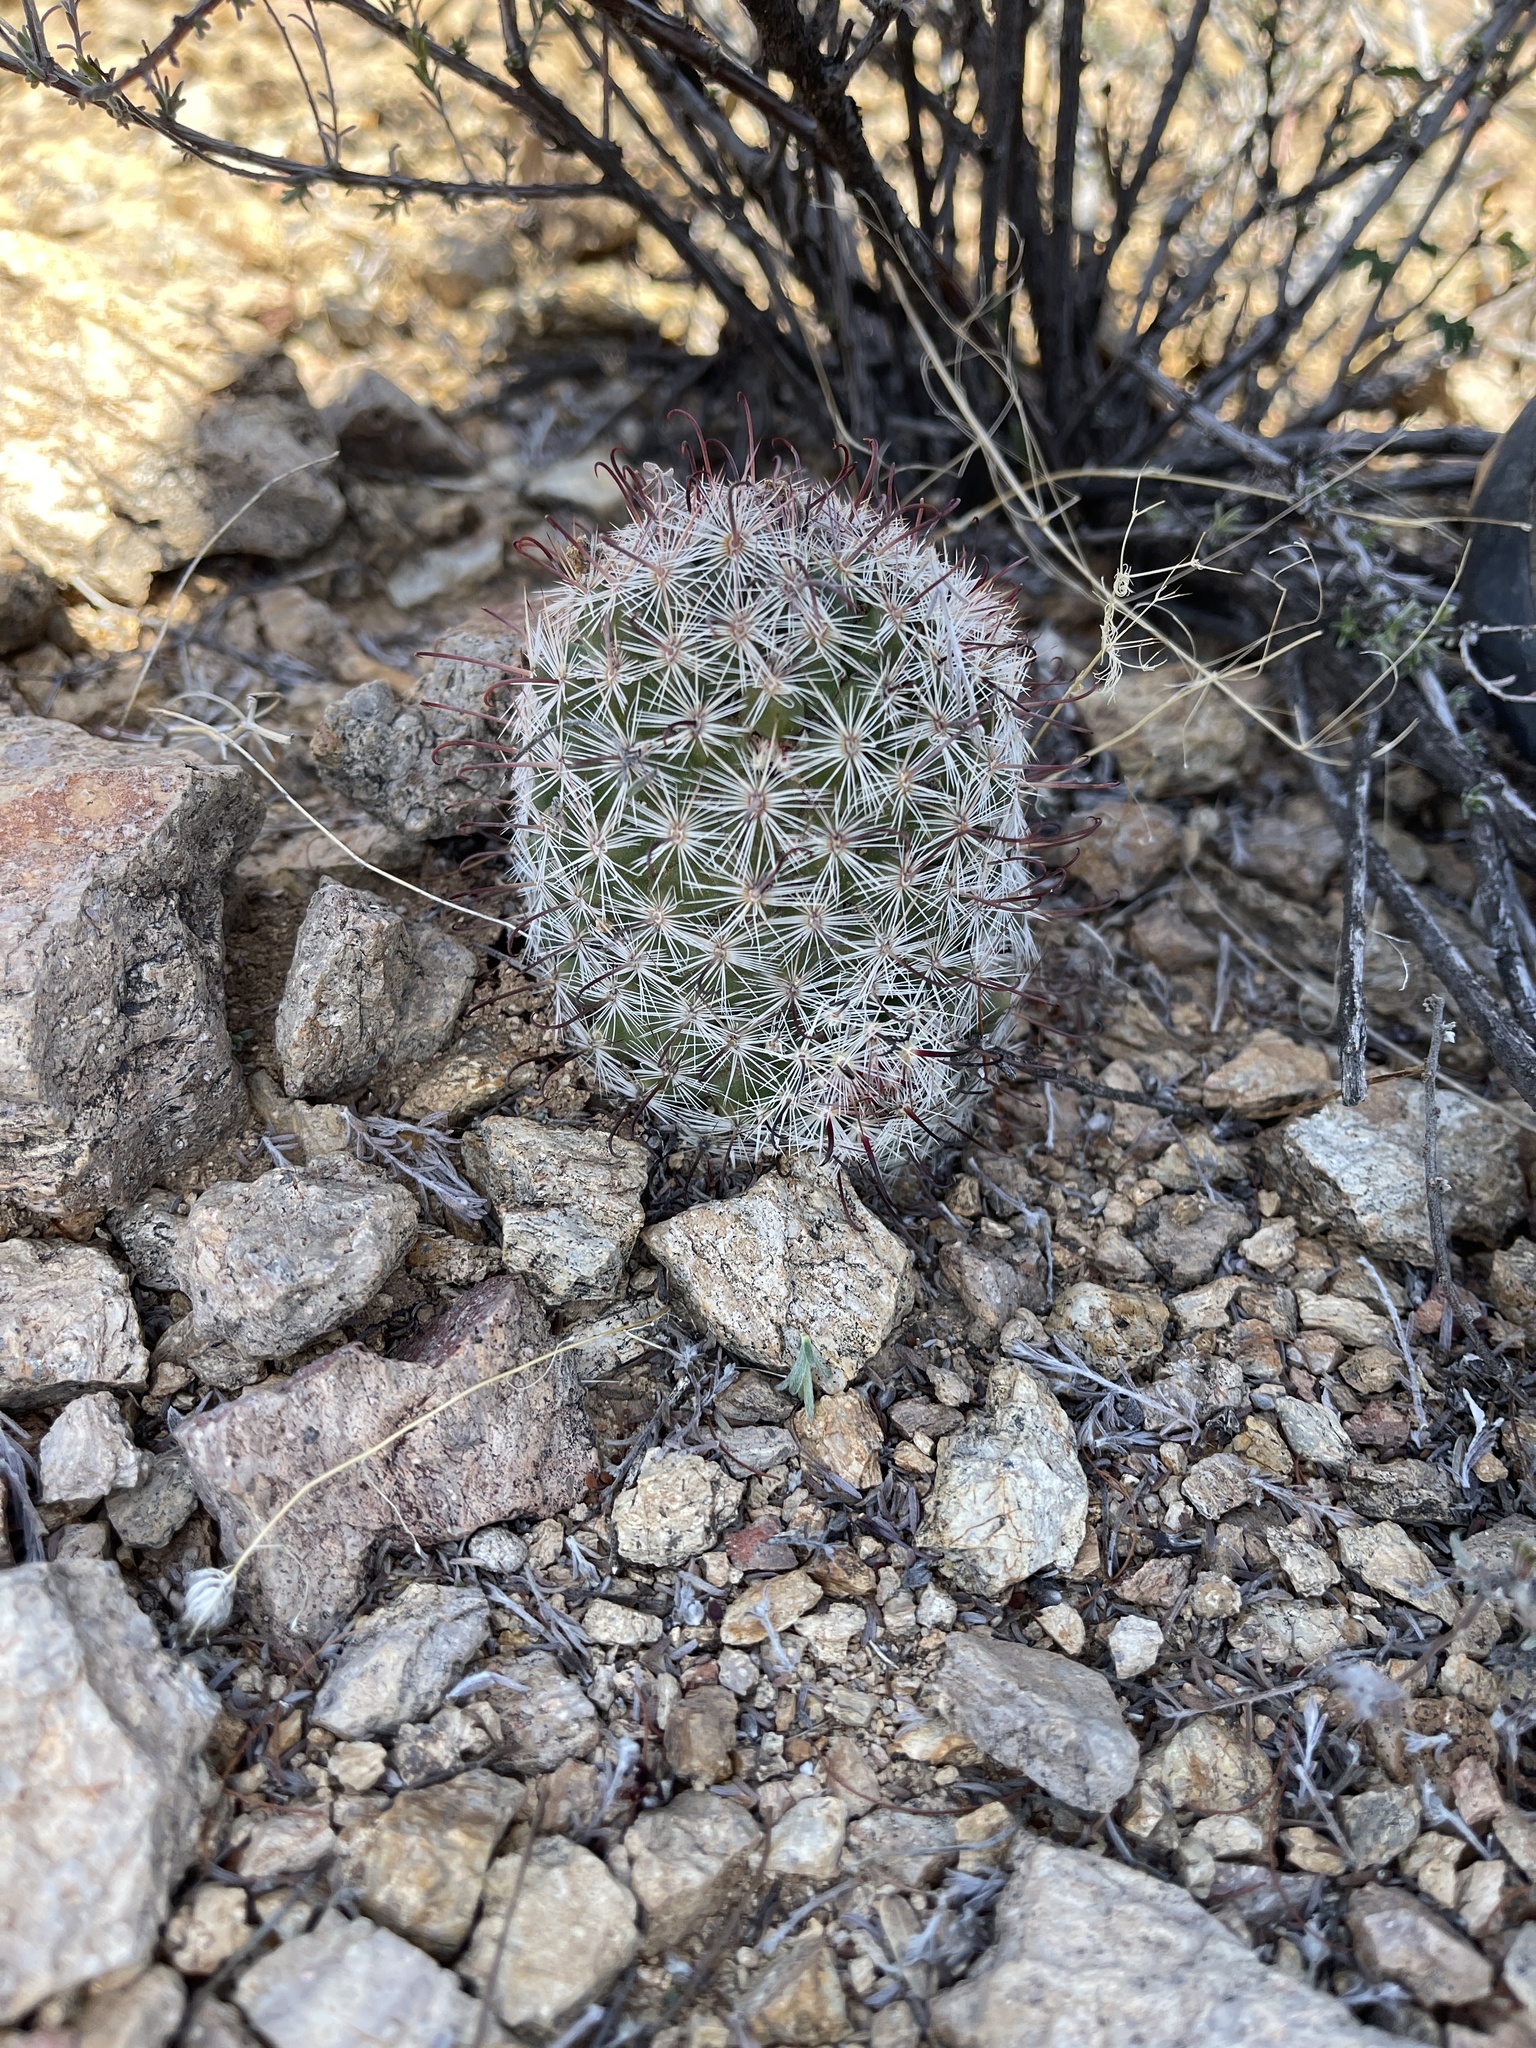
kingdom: Plantae
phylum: Tracheophyta
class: Magnoliopsida
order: Caryophyllales
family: Cactaceae
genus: Cochemiea
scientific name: Cochemiea grahamii
